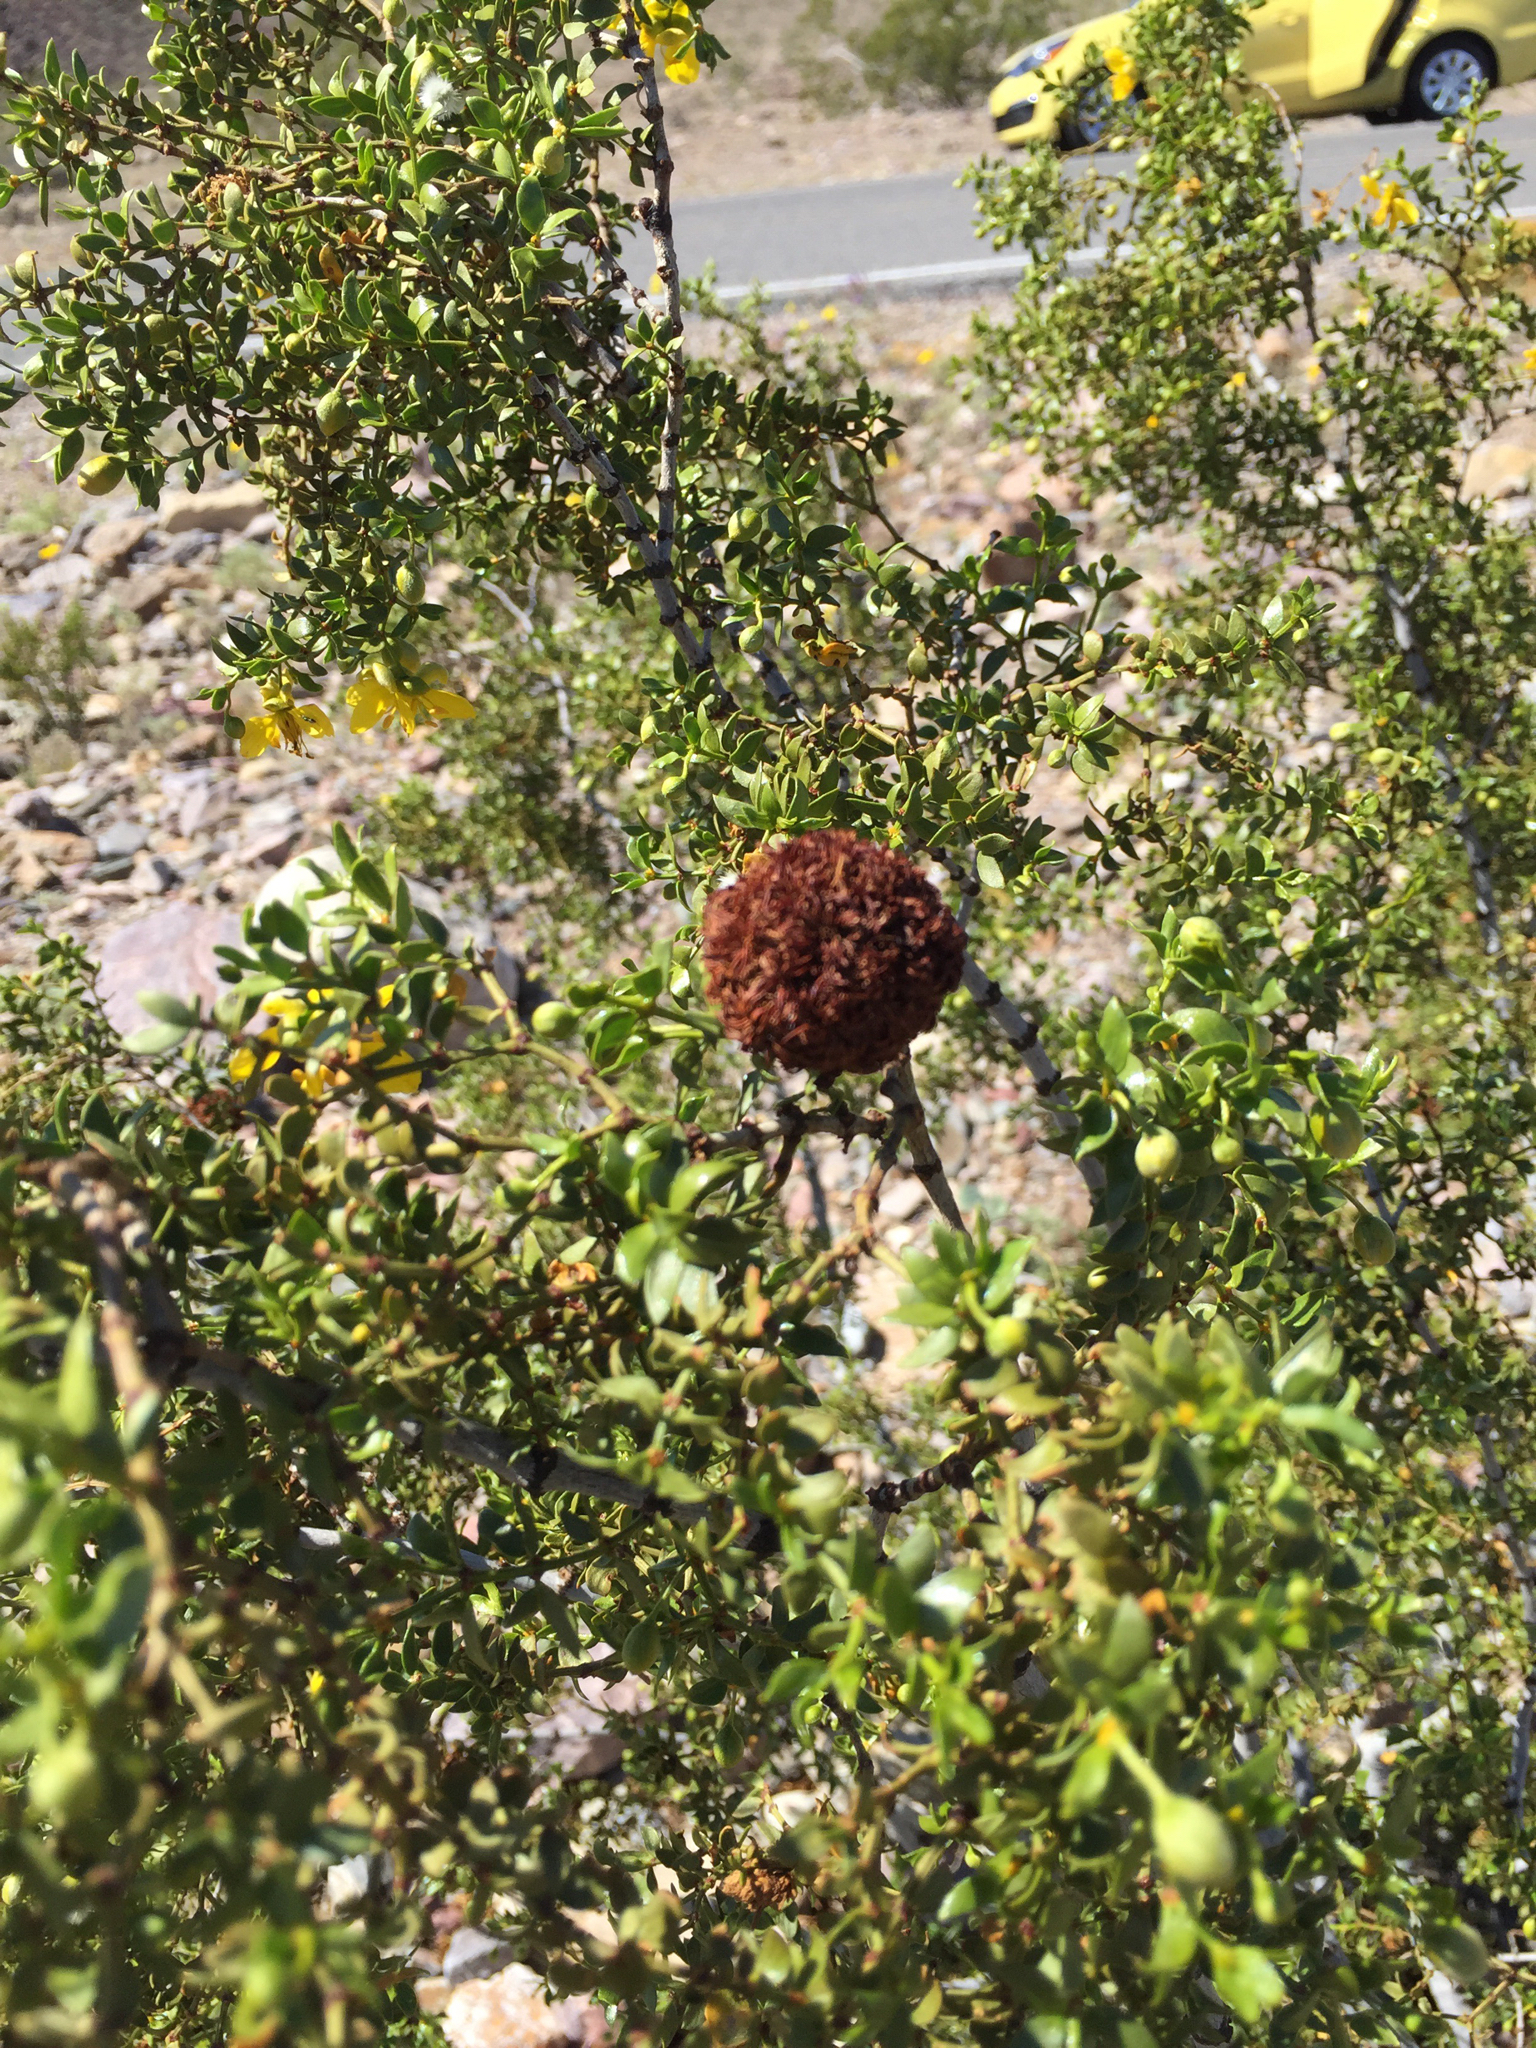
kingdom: Animalia
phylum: Arthropoda
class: Insecta
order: Diptera
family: Cecidomyiidae
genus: Asphondylia
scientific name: Asphondylia auripila
